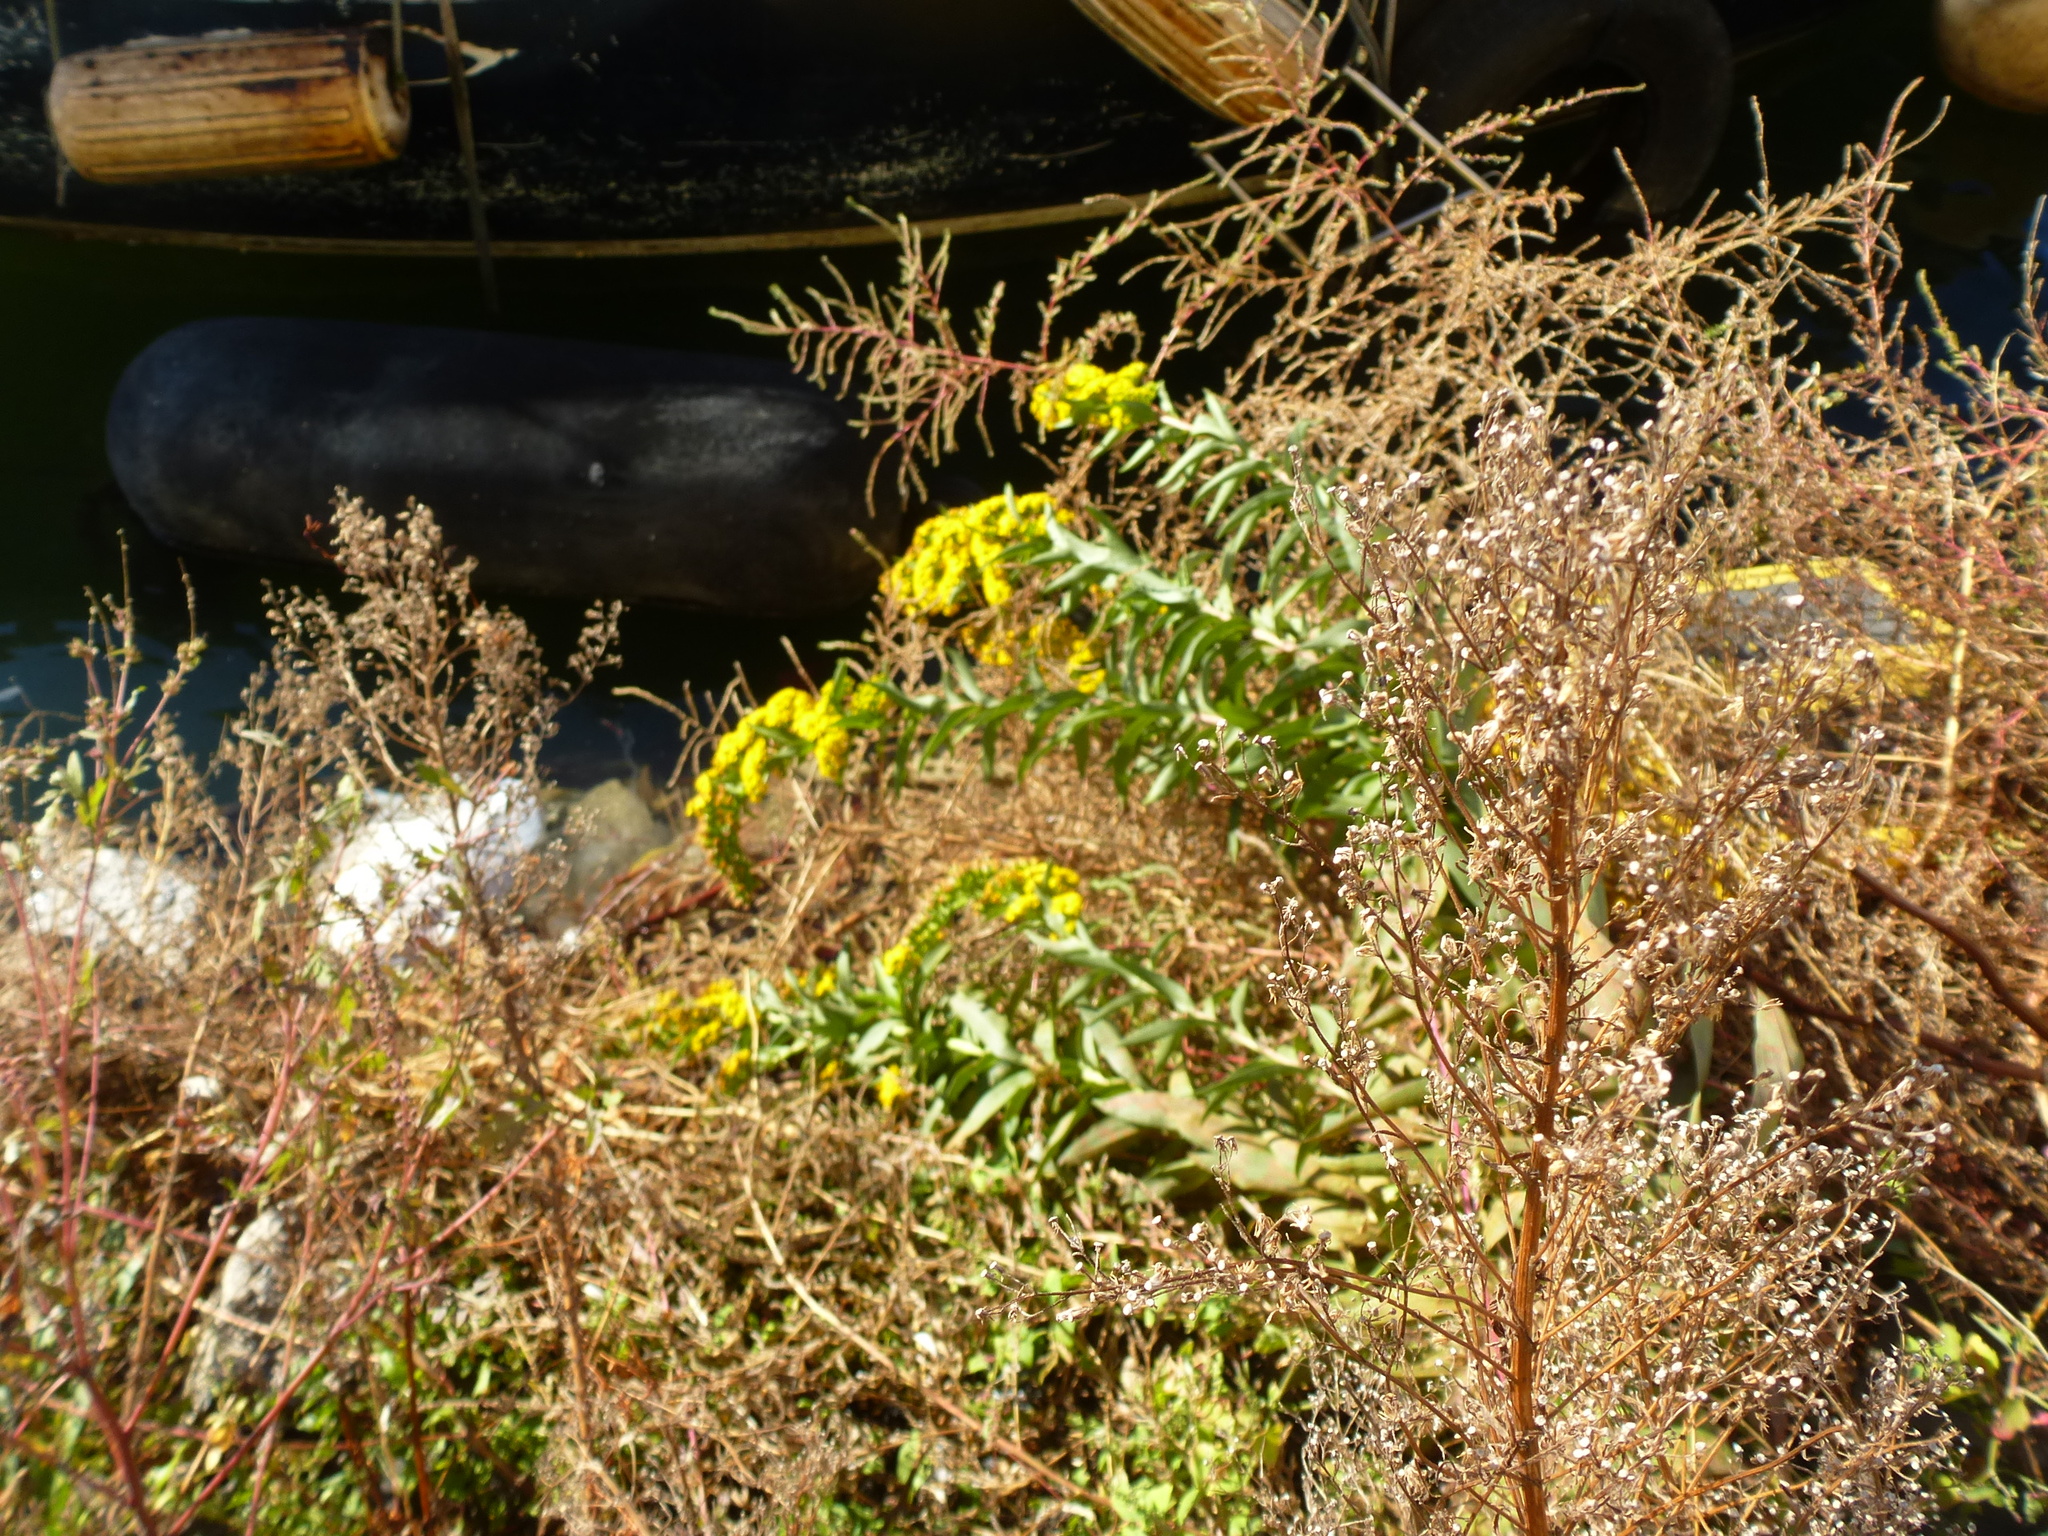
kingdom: Plantae
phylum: Tracheophyta
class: Magnoliopsida
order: Asterales
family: Asteraceae
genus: Solidago
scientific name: Solidago sempervirens
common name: Salt-marsh goldenrod
